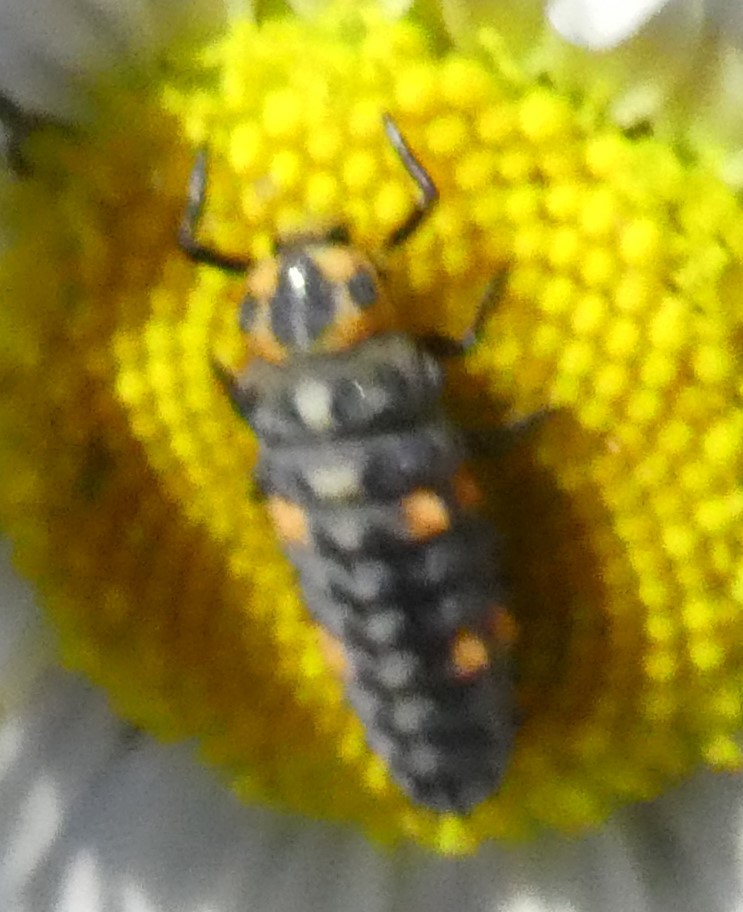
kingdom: Animalia
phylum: Arthropoda
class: Insecta
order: Coleoptera
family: Coccinellidae
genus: Coccinella
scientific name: Coccinella septempunctata
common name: Sevenspotted lady beetle
